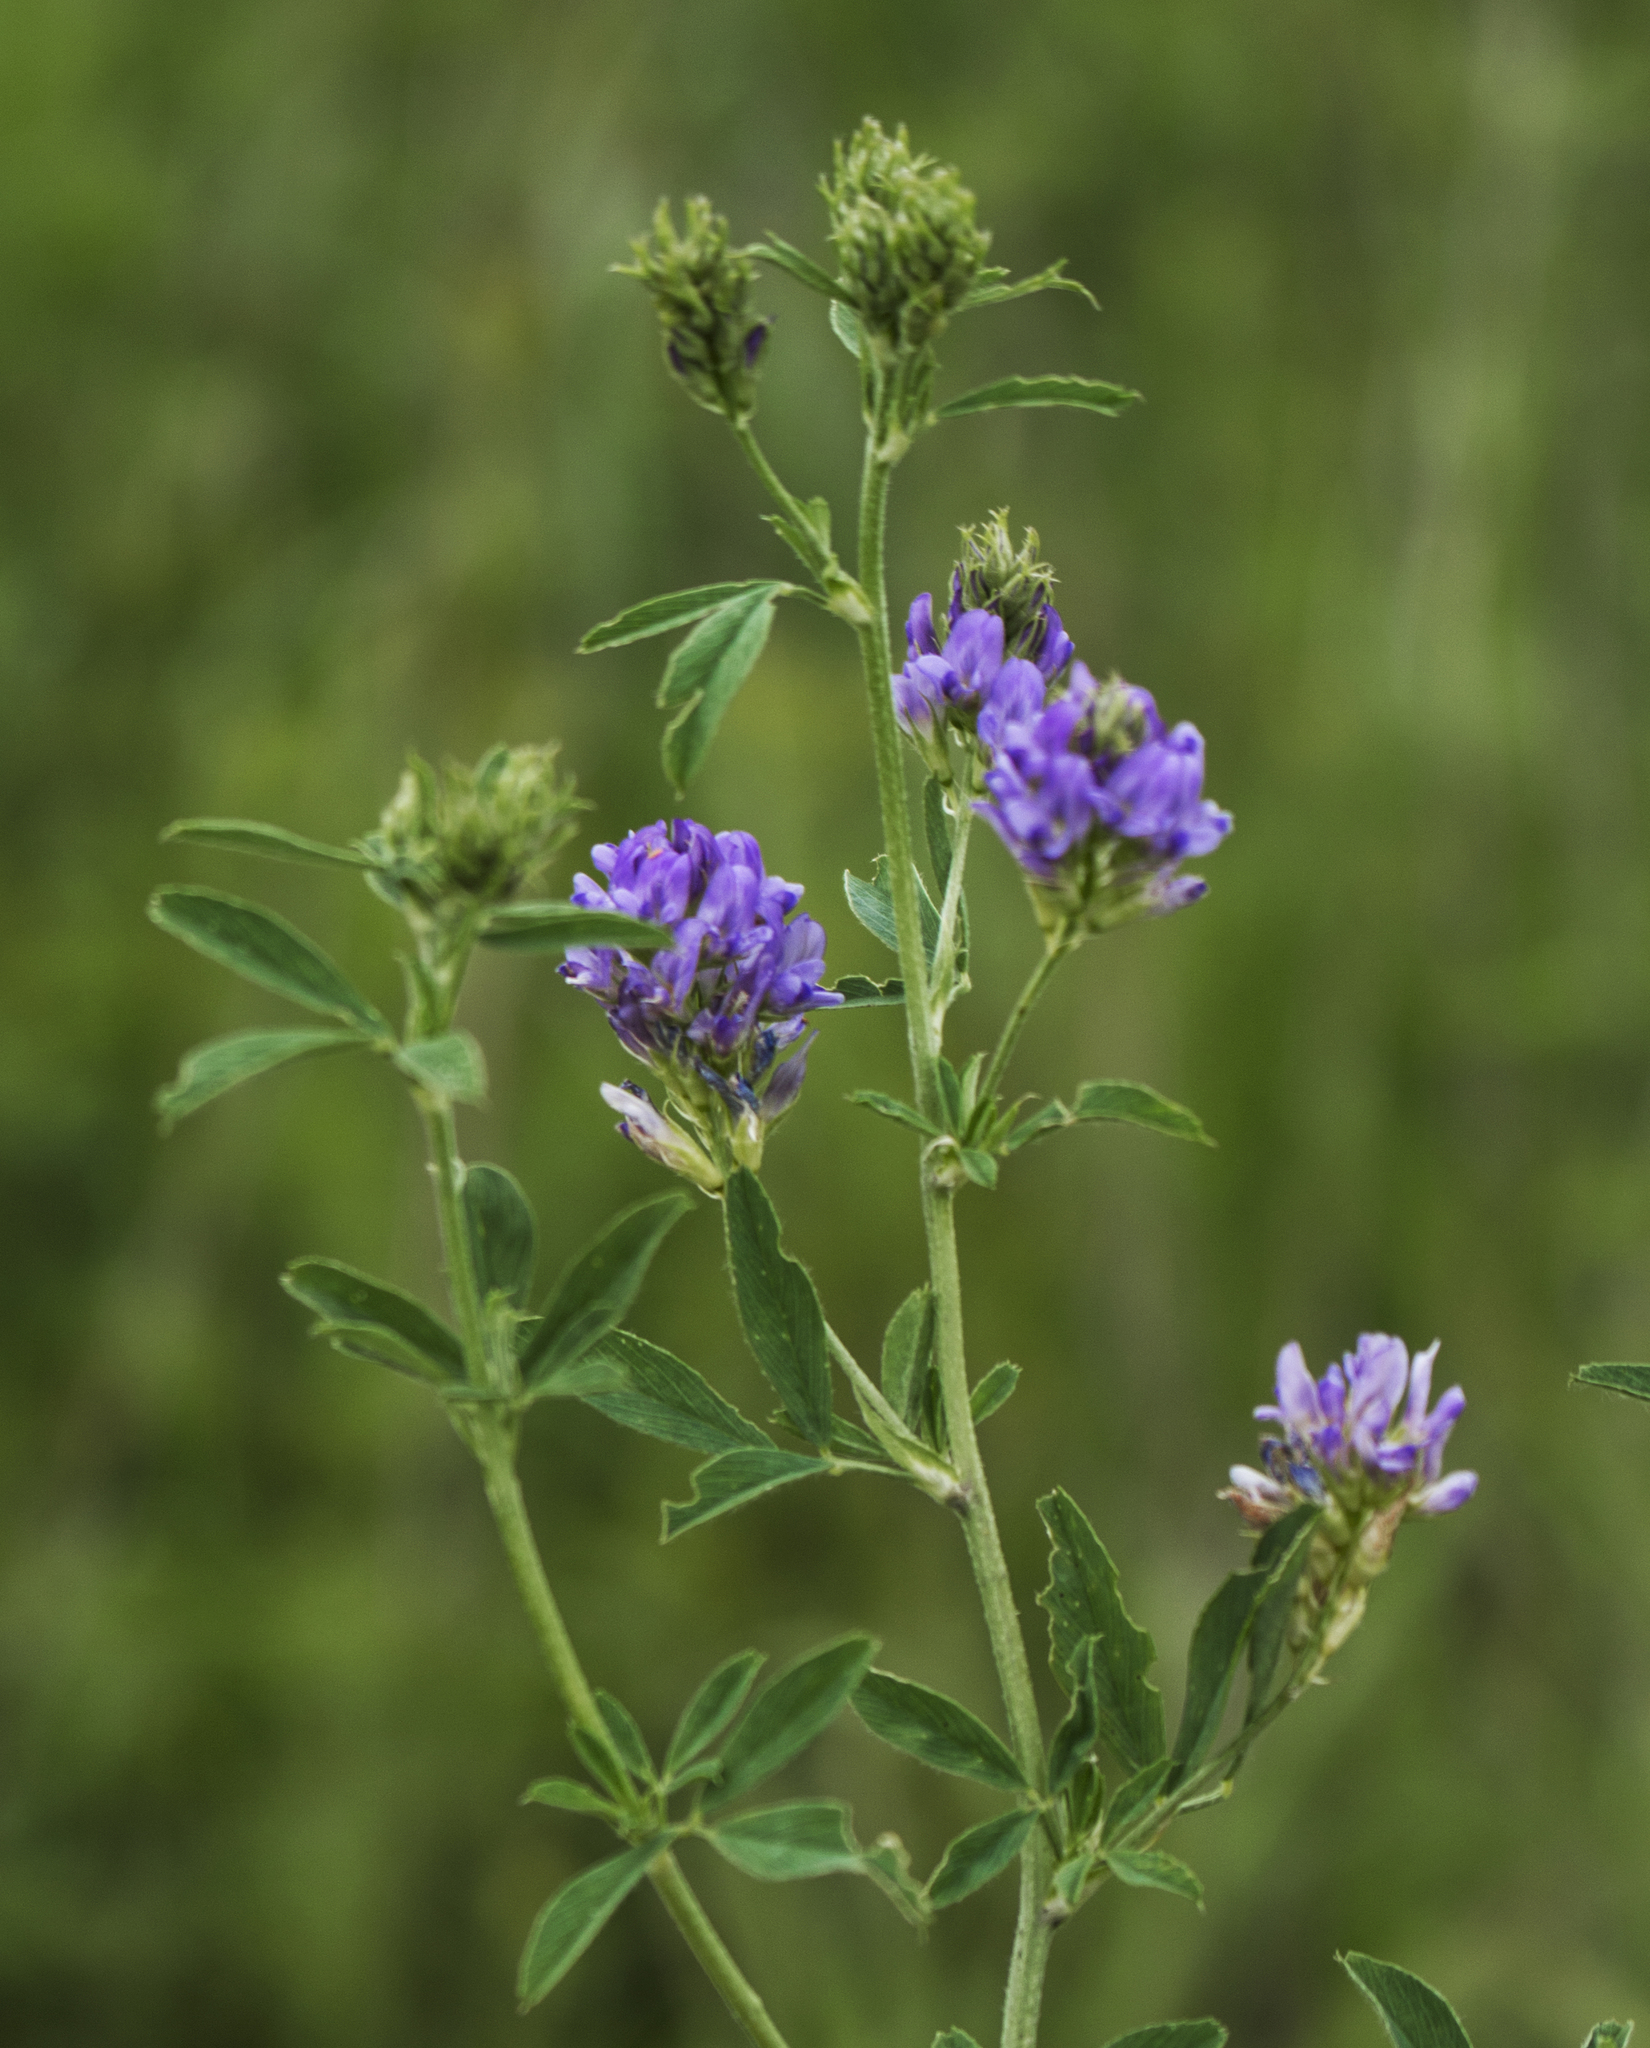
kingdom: Plantae
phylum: Tracheophyta
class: Magnoliopsida
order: Fabales
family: Fabaceae
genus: Medicago
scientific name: Medicago sativa
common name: Alfalfa
